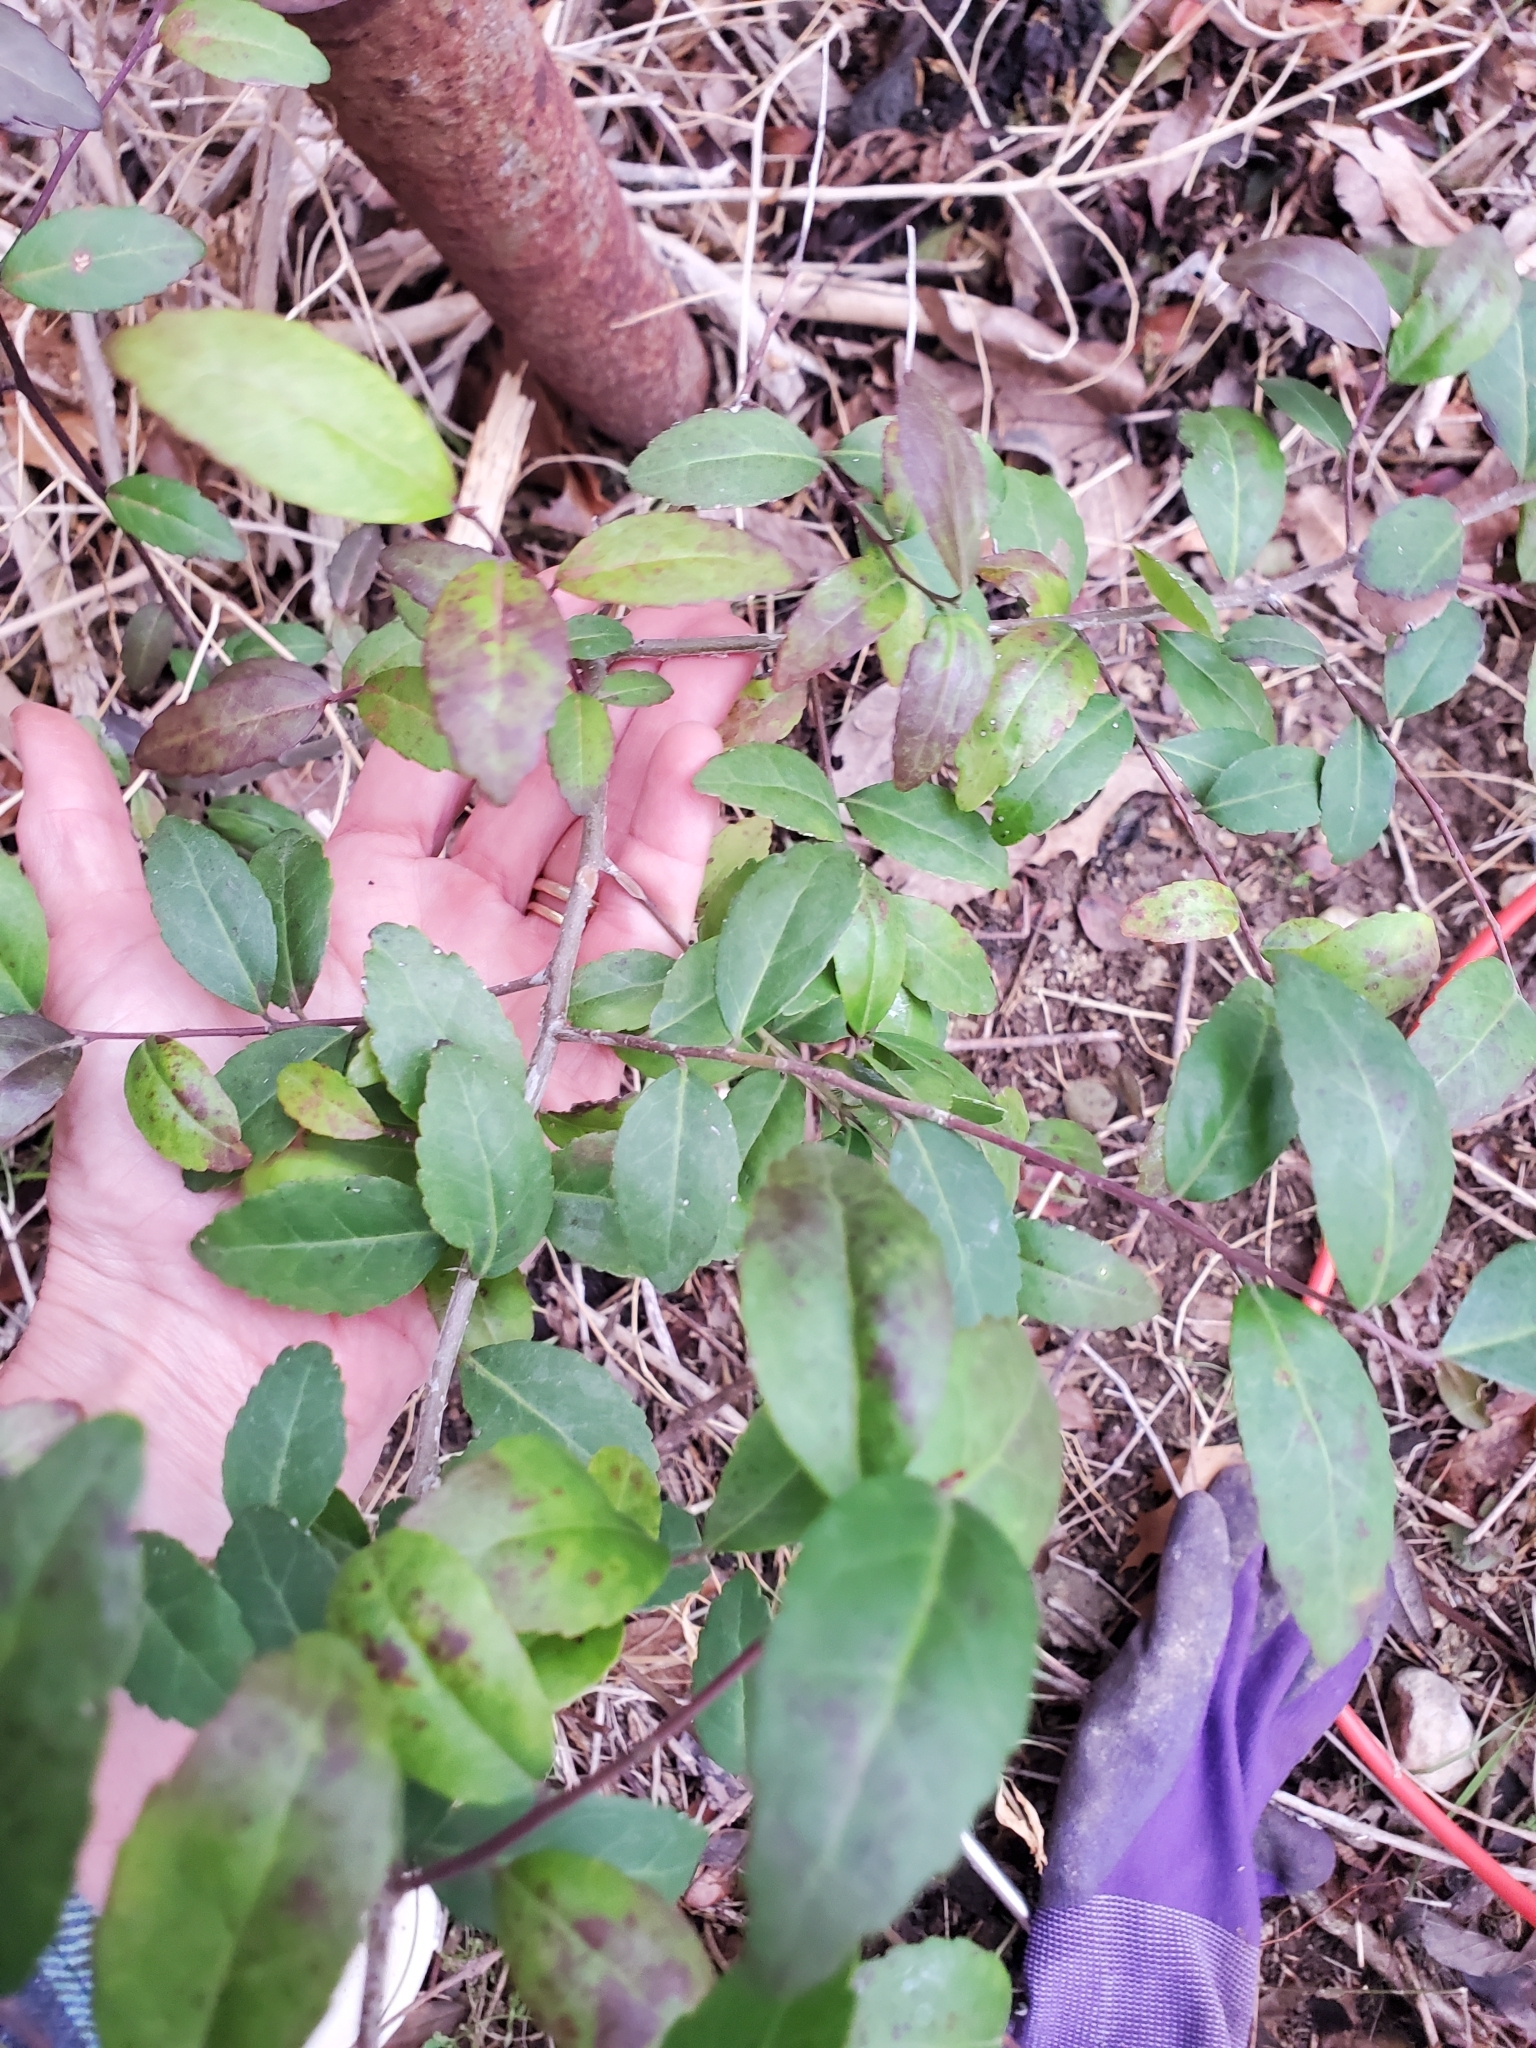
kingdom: Plantae
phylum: Tracheophyta
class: Magnoliopsida
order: Aquifoliales
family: Aquifoliaceae
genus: Ilex
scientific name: Ilex vomitoria
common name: Yaupon holly
